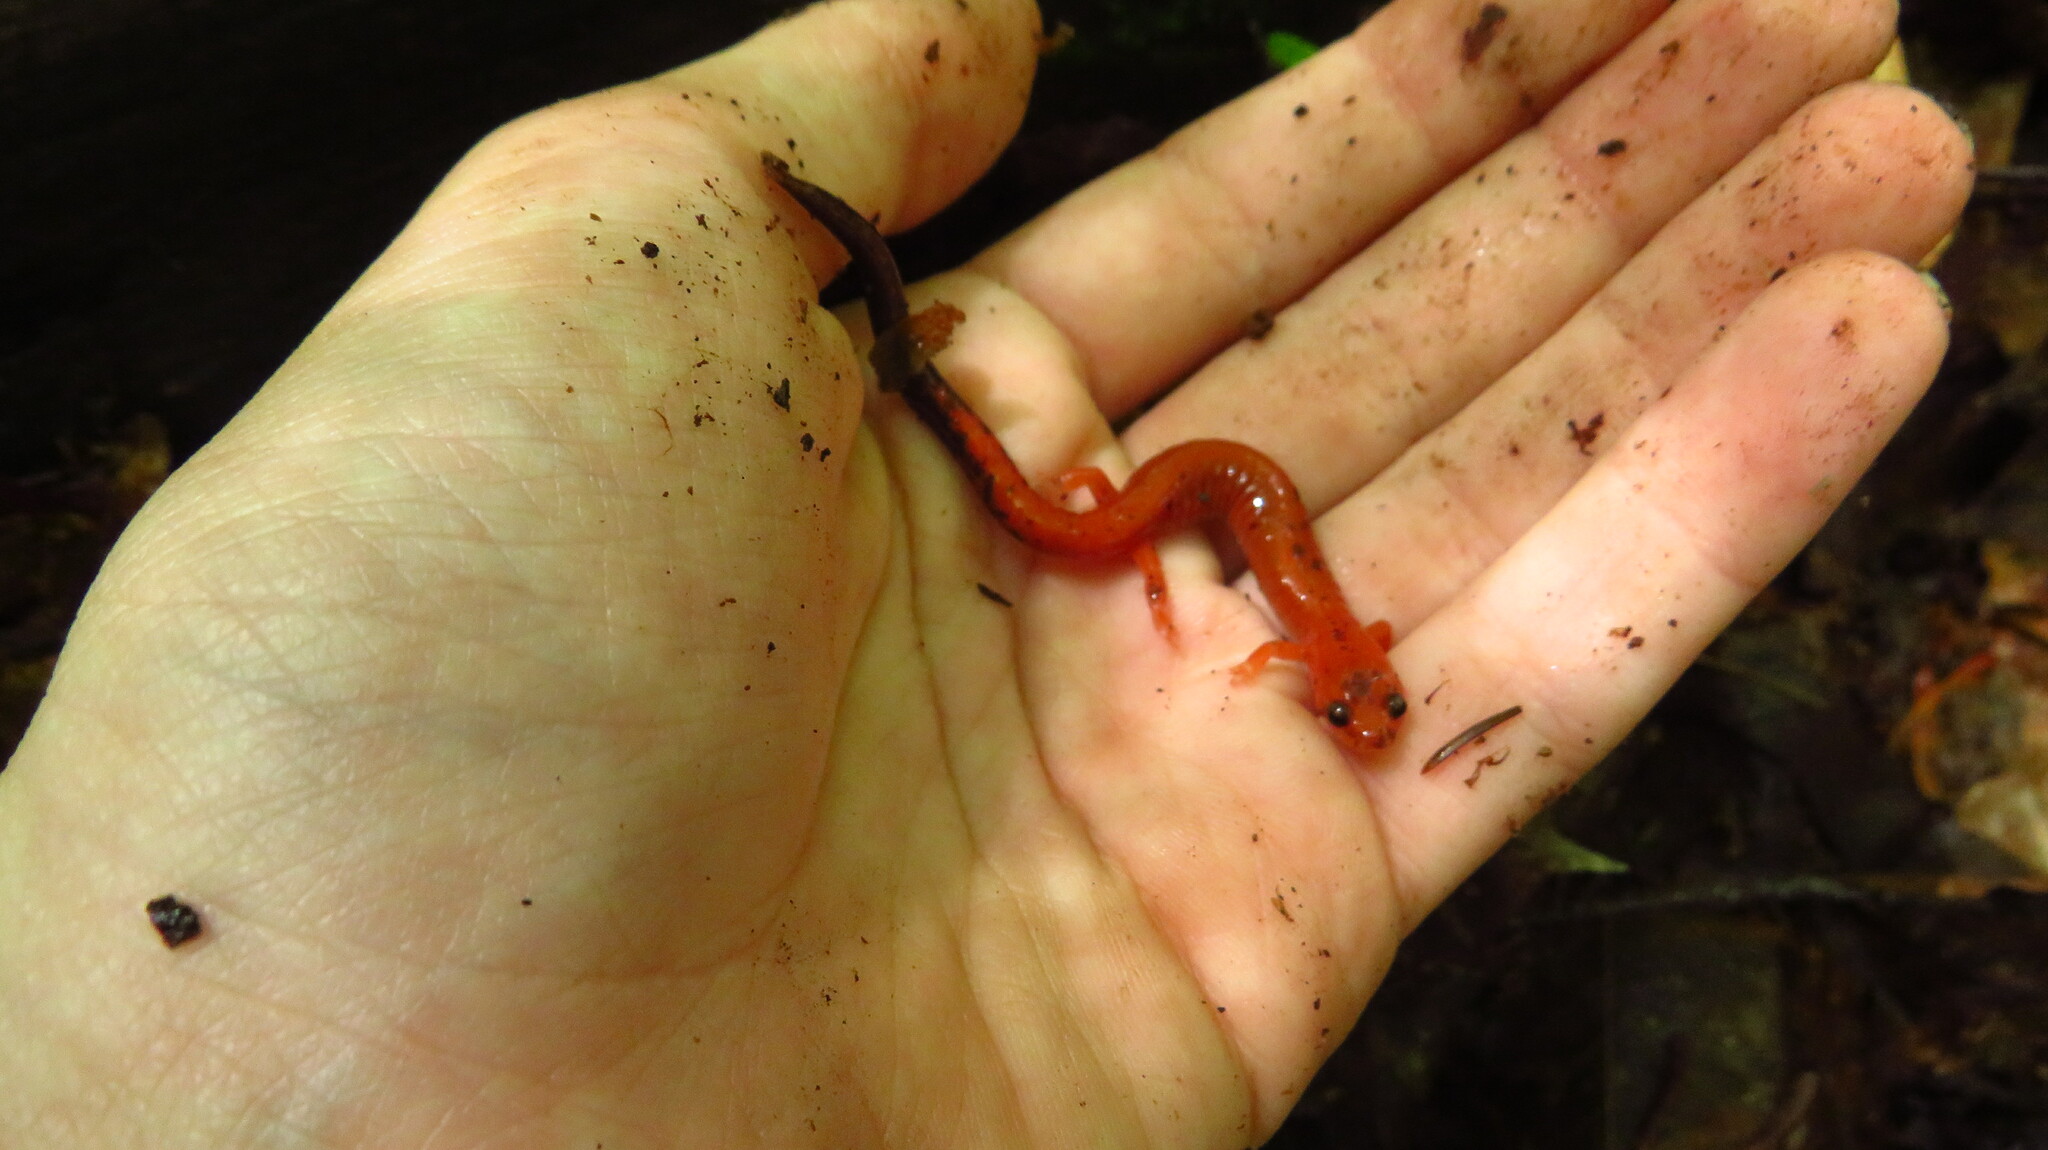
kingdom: Animalia
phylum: Chordata
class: Amphibia
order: Caudata
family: Plethodontidae
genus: Plethodon
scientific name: Plethodon cinereus
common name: Redback salamander
